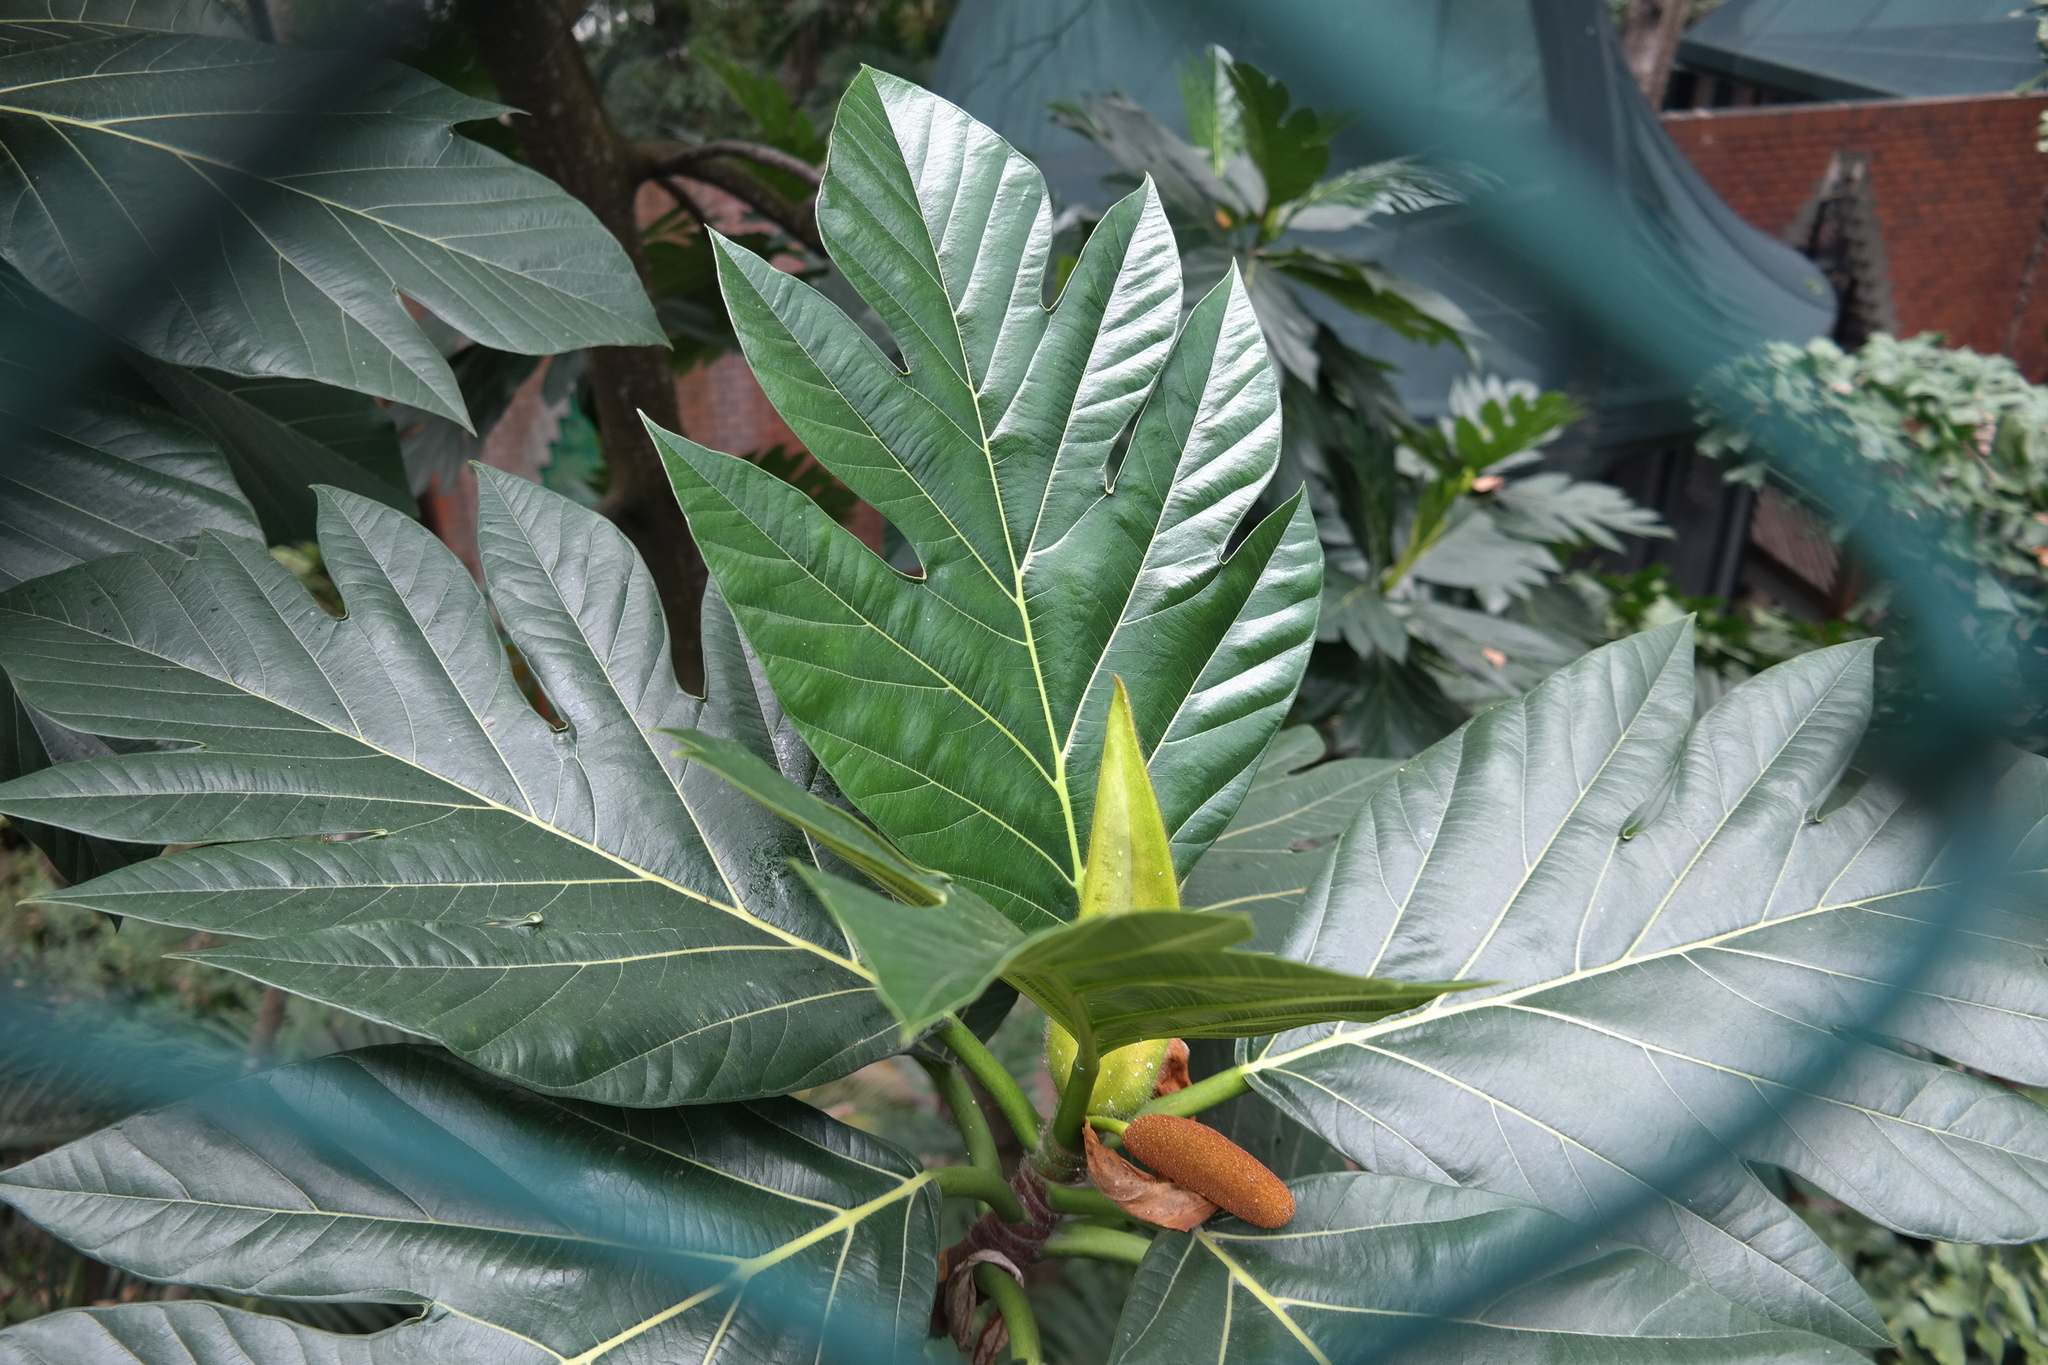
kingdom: Plantae
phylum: Tracheophyta
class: Magnoliopsida
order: Rosales
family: Moraceae
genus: Artocarpus
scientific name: Artocarpus altilis
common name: Breadfruit
